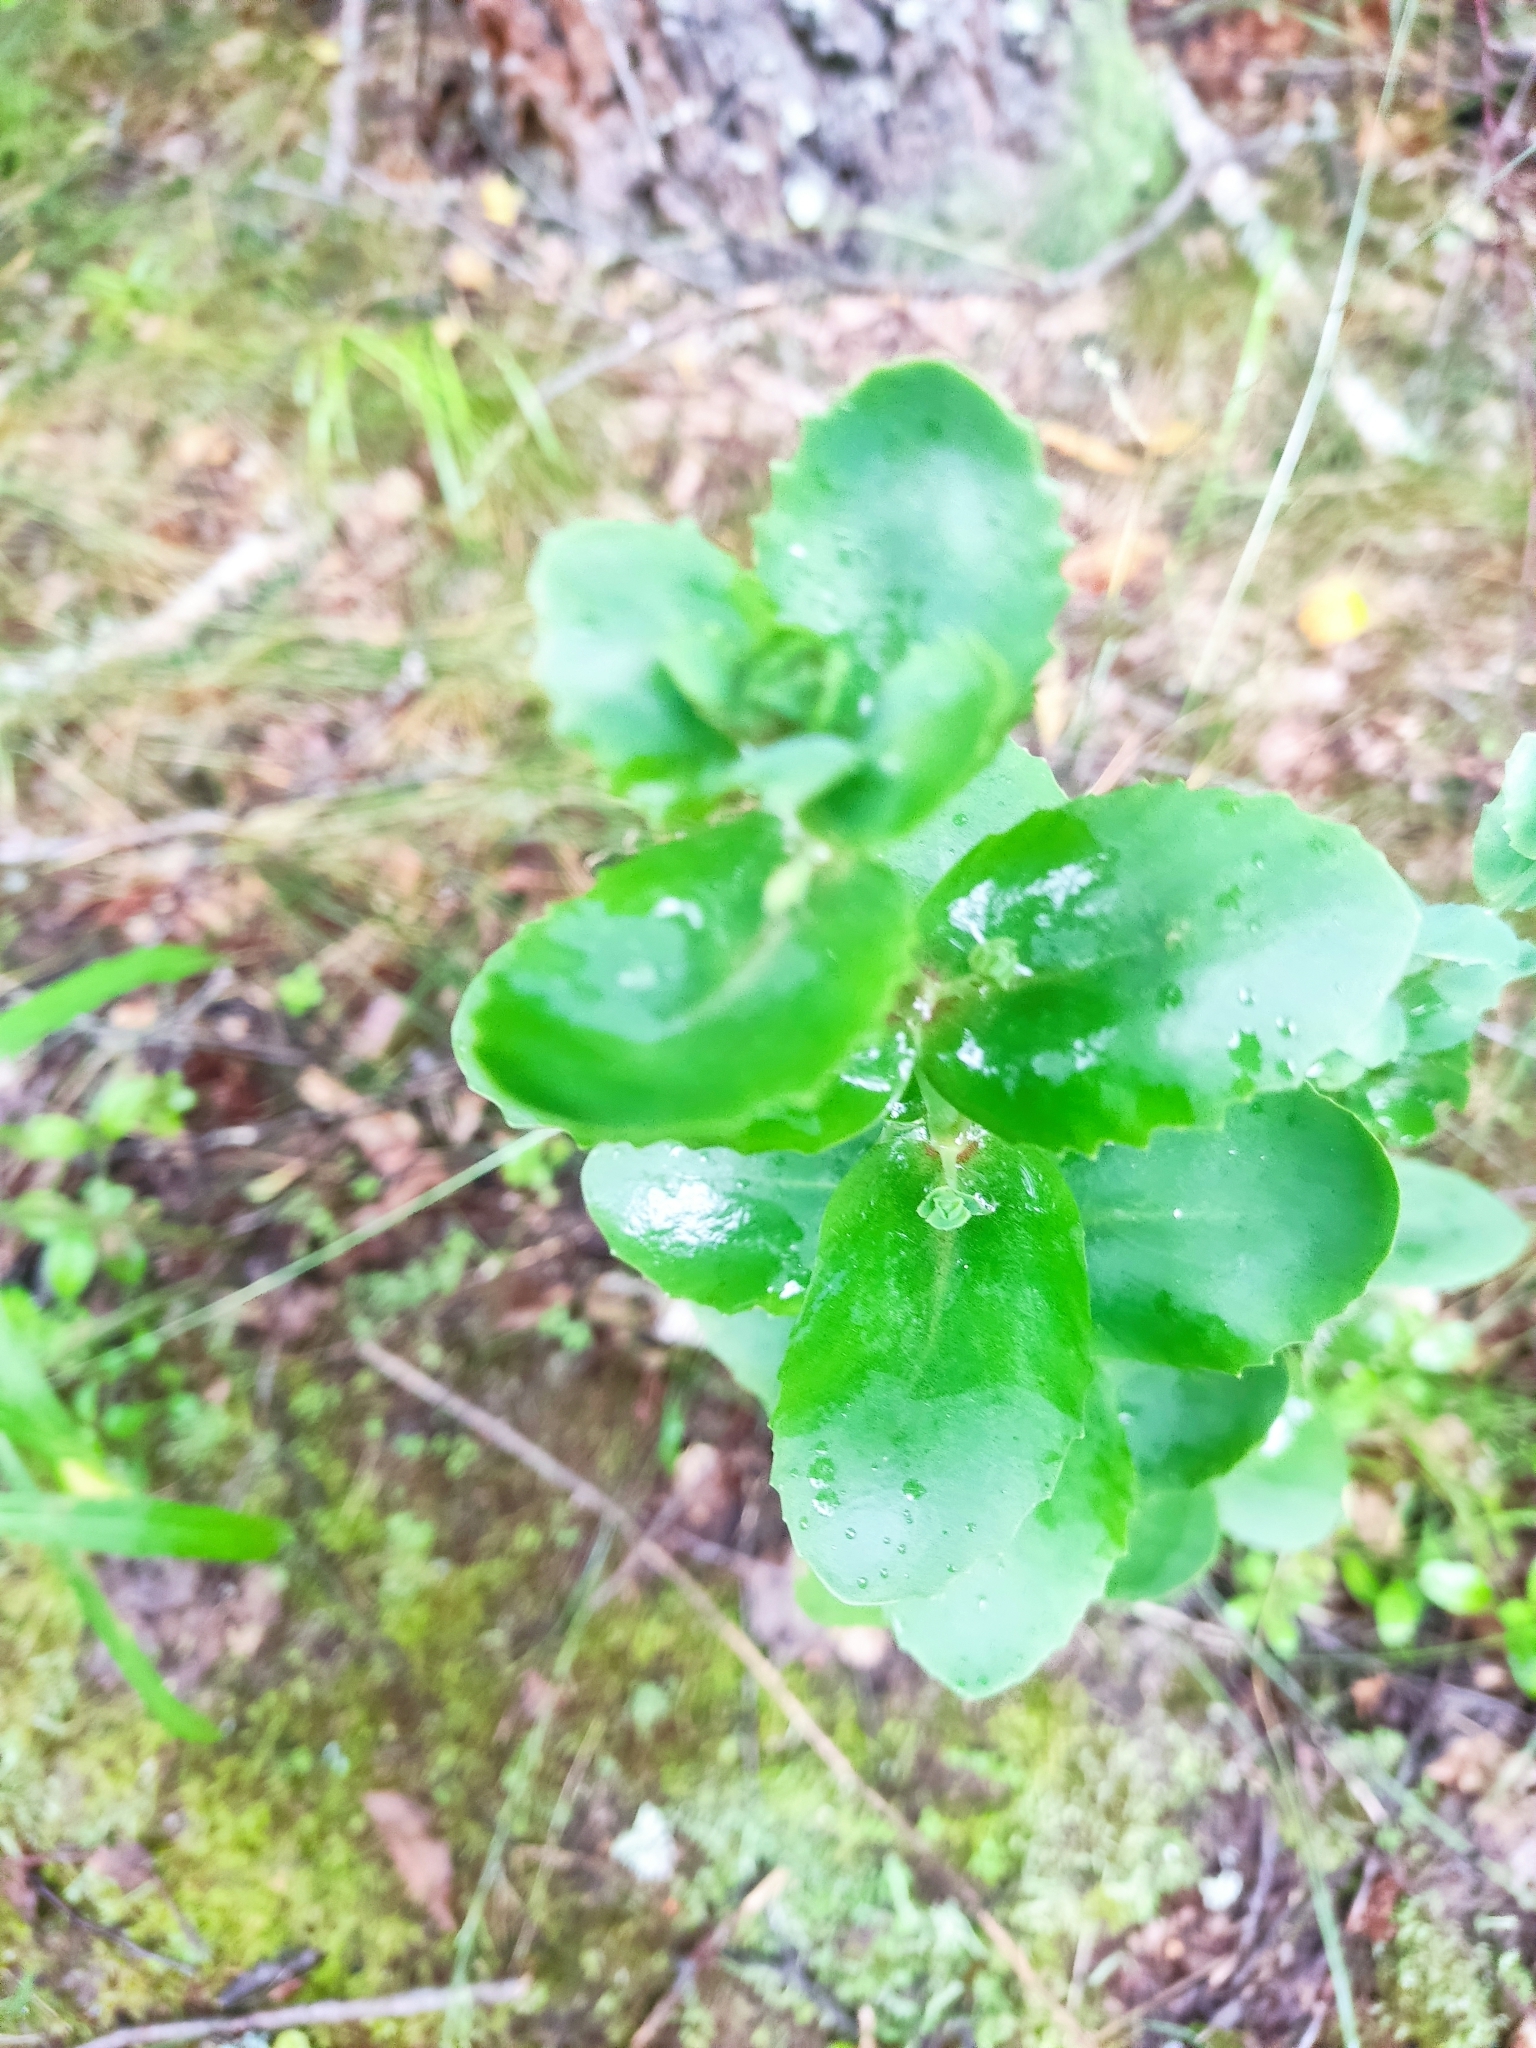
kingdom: Plantae
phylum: Tracheophyta
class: Magnoliopsida
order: Saxifragales
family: Crassulaceae
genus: Hylotelephium
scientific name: Hylotelephium maximum
